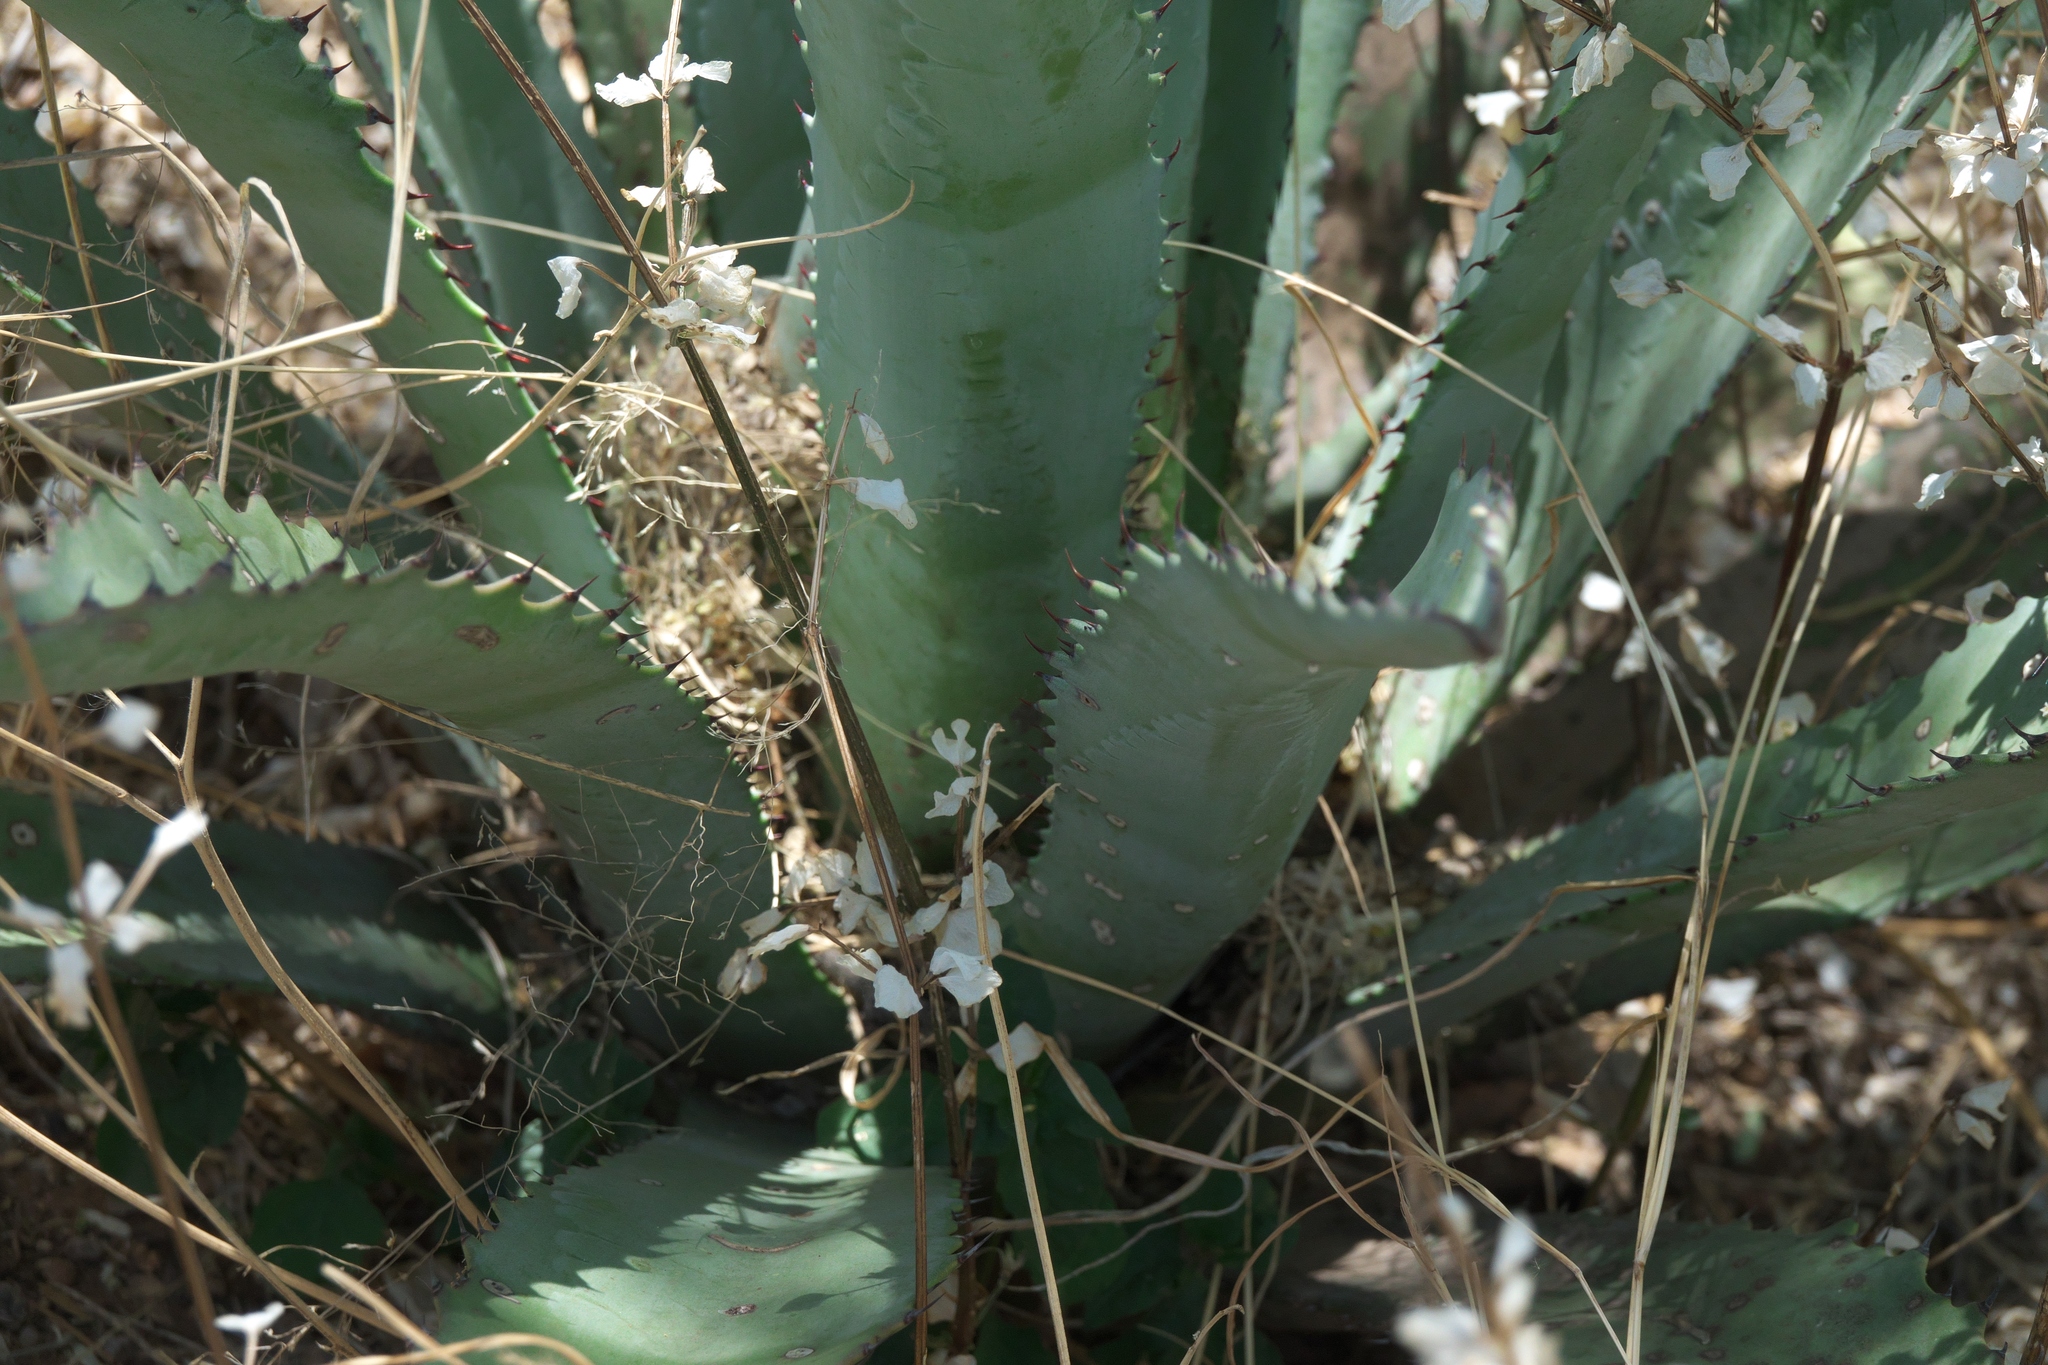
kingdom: Plantae
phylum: Tracheophyta
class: Liliopsida
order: Asparagales
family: Asparagaceae
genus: Agave
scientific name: Agave palmeri
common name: Palmer agave
